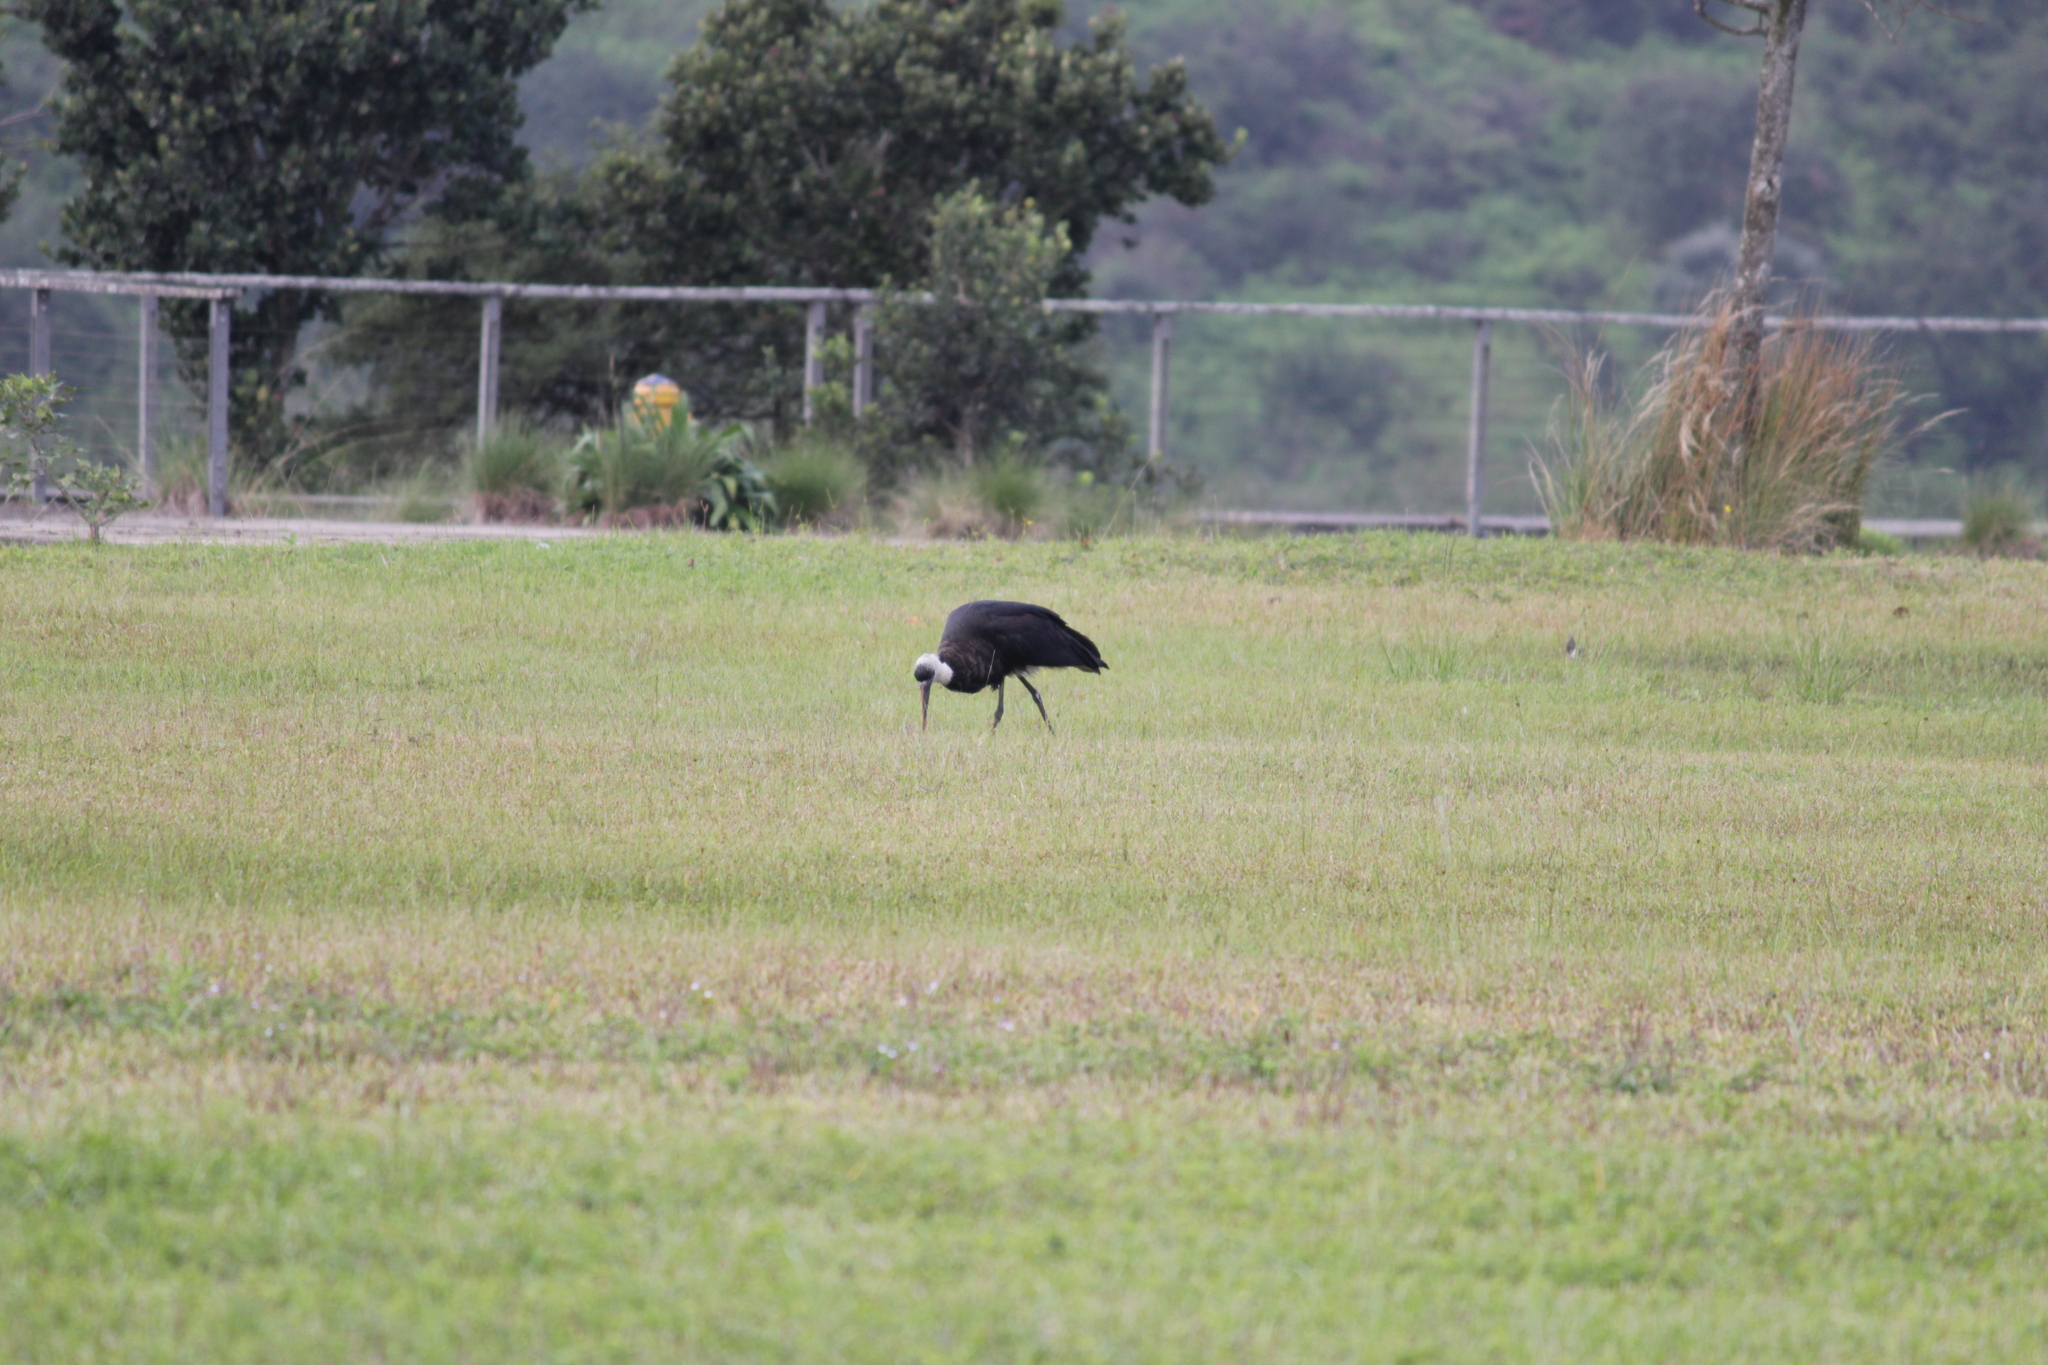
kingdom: Animalia
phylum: Chordata
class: Aves
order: Ciconiiformes
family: Ciconiidae
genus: Ciconia
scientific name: Ciconia microscelis
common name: African woollyneck
